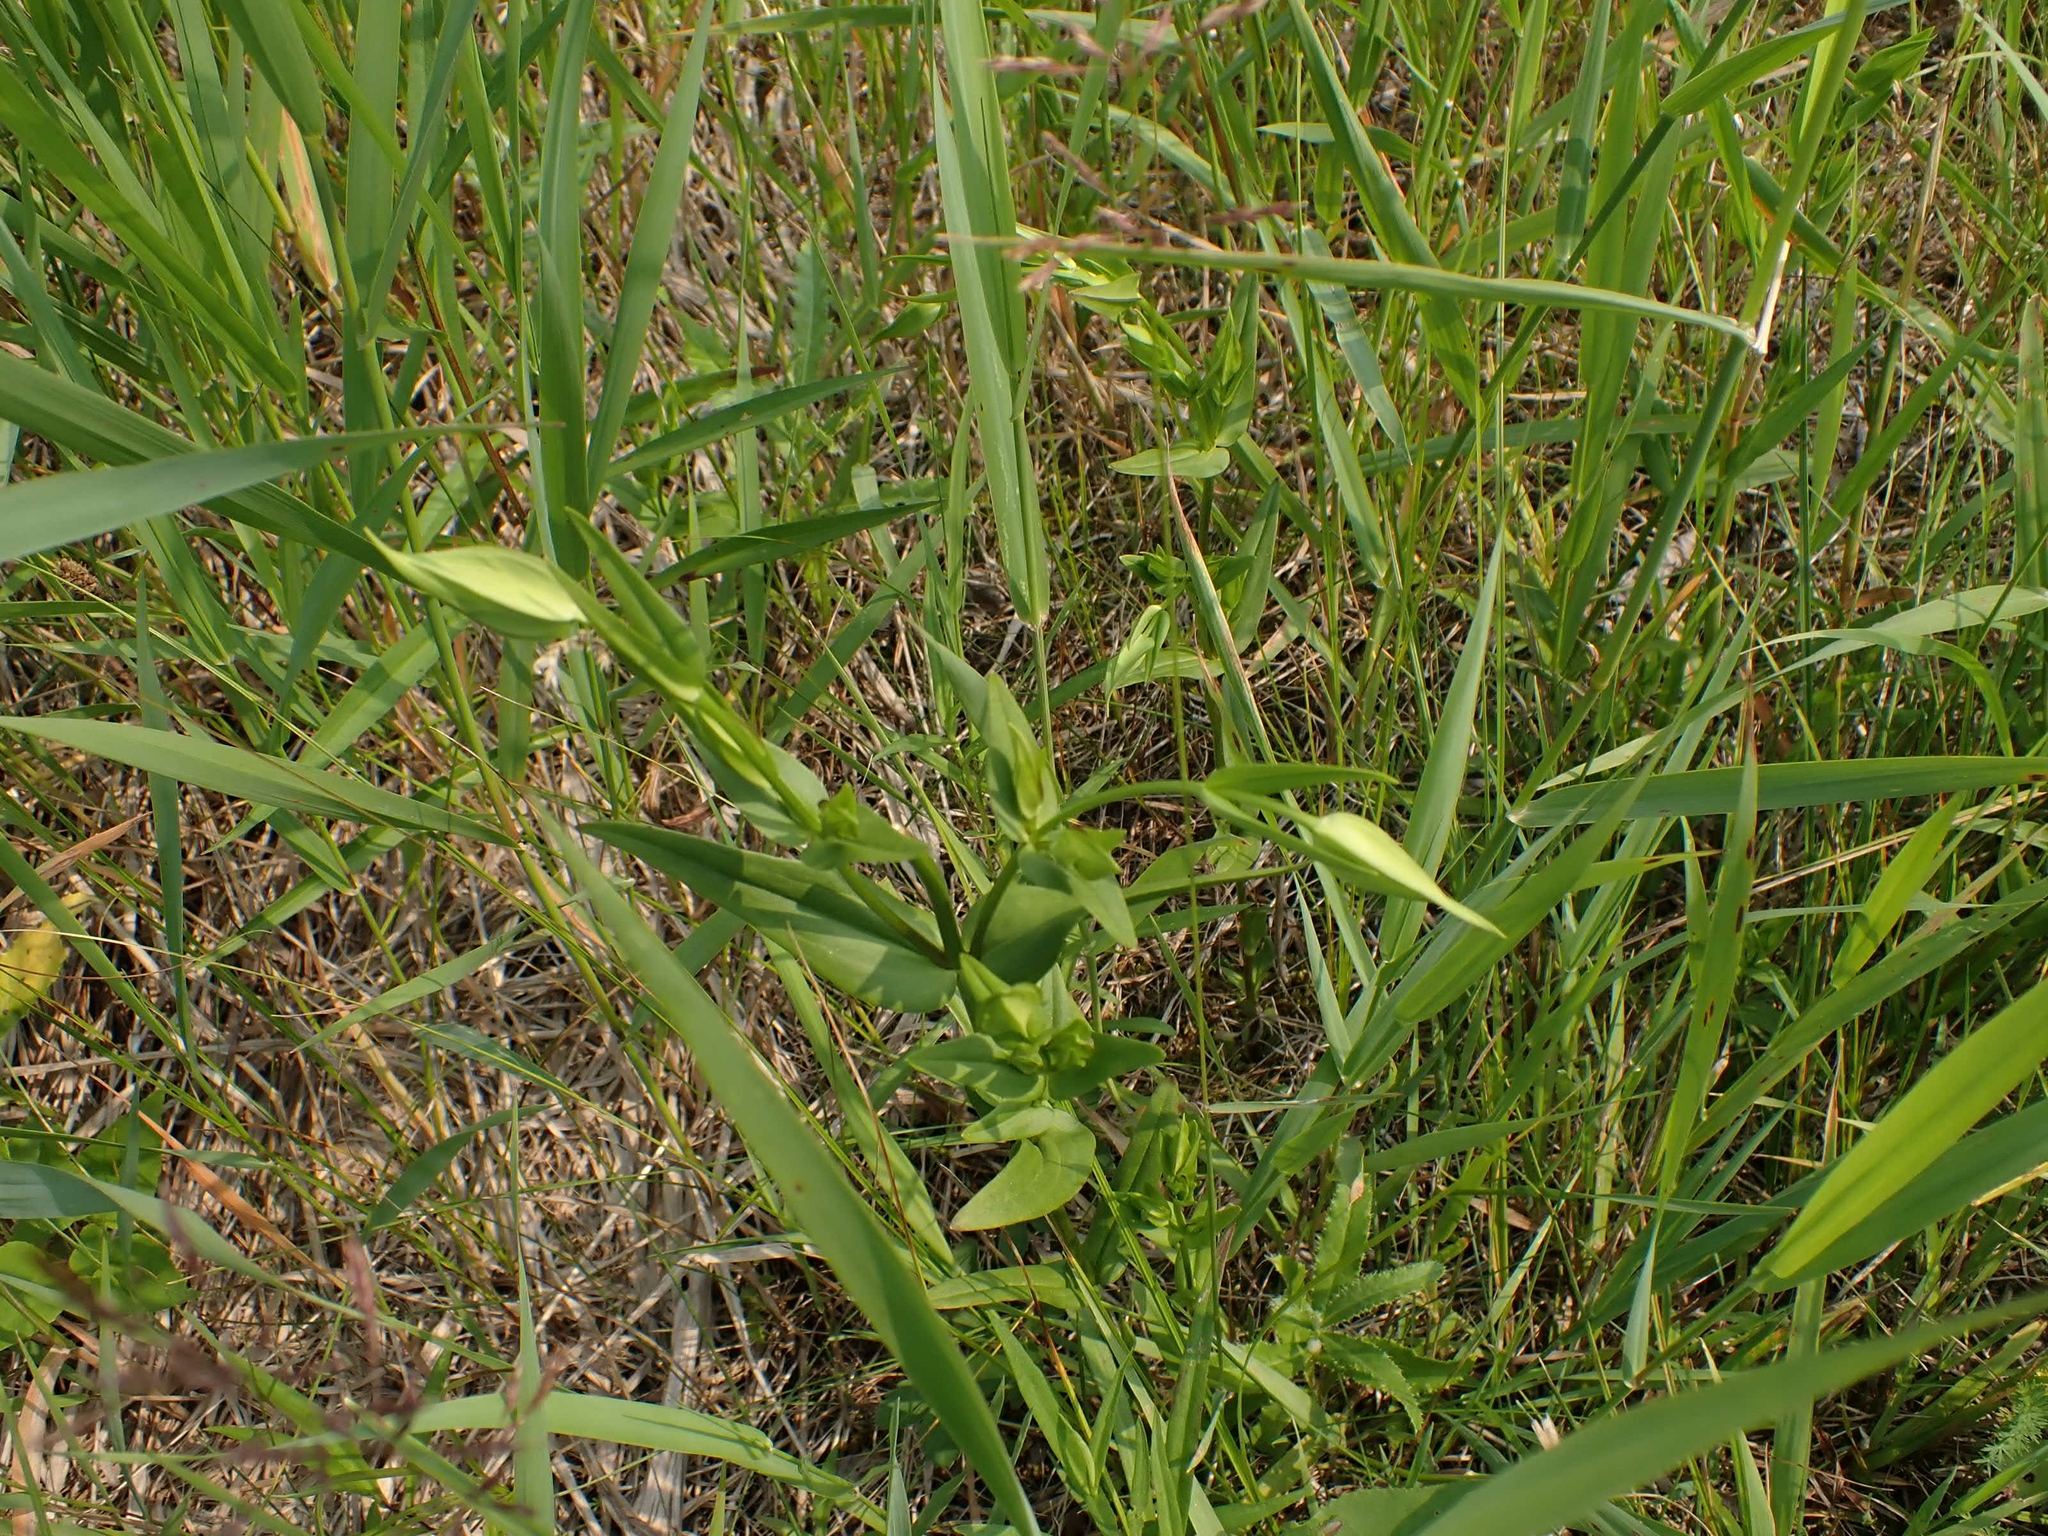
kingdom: Plantae
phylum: Tracheophyta
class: Magnoliopsida
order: Gentianales
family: Gentianaceae
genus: Gentianopsis
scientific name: Gentianopsis crinita
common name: Fringed-gentian
